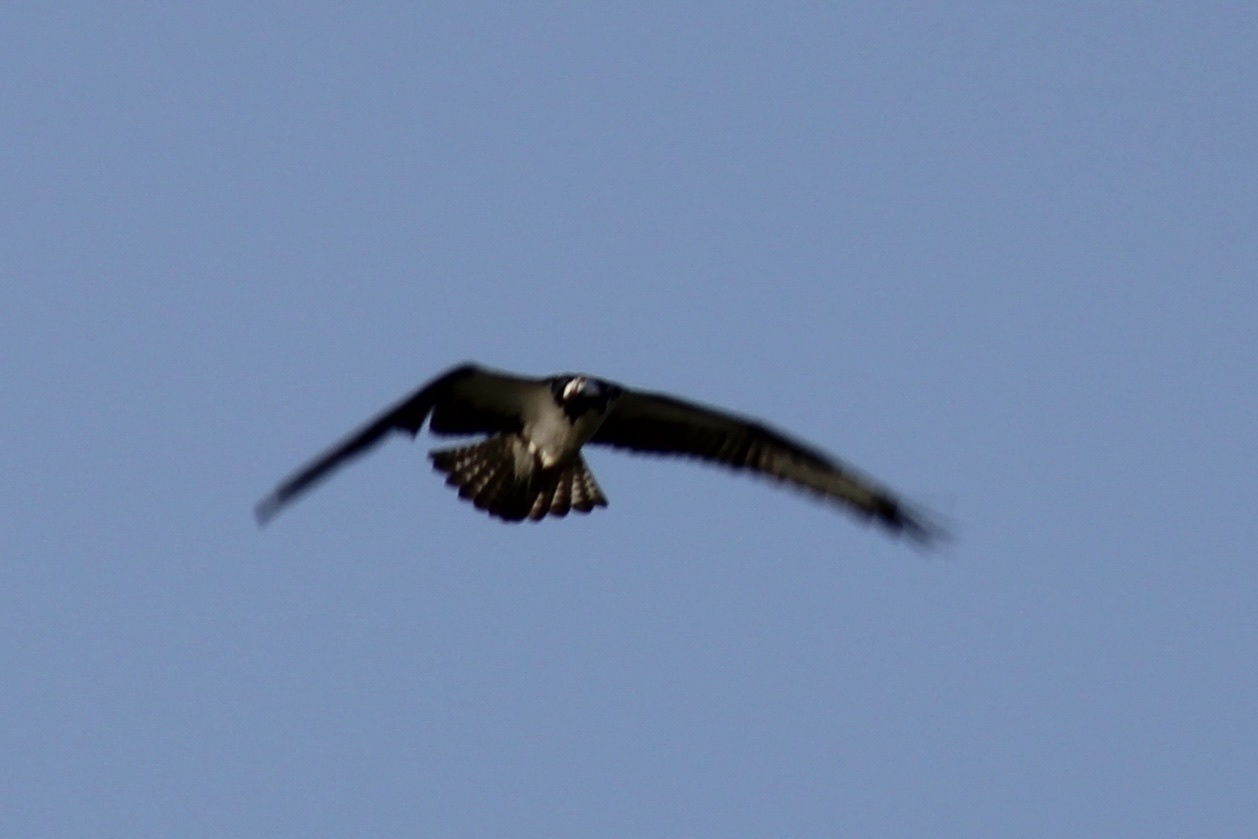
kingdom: Animalia
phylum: Chordata
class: Aves
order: Accipitriformes
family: Pandionidae
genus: Pandion
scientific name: Pandion haliaetus
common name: Osprey
